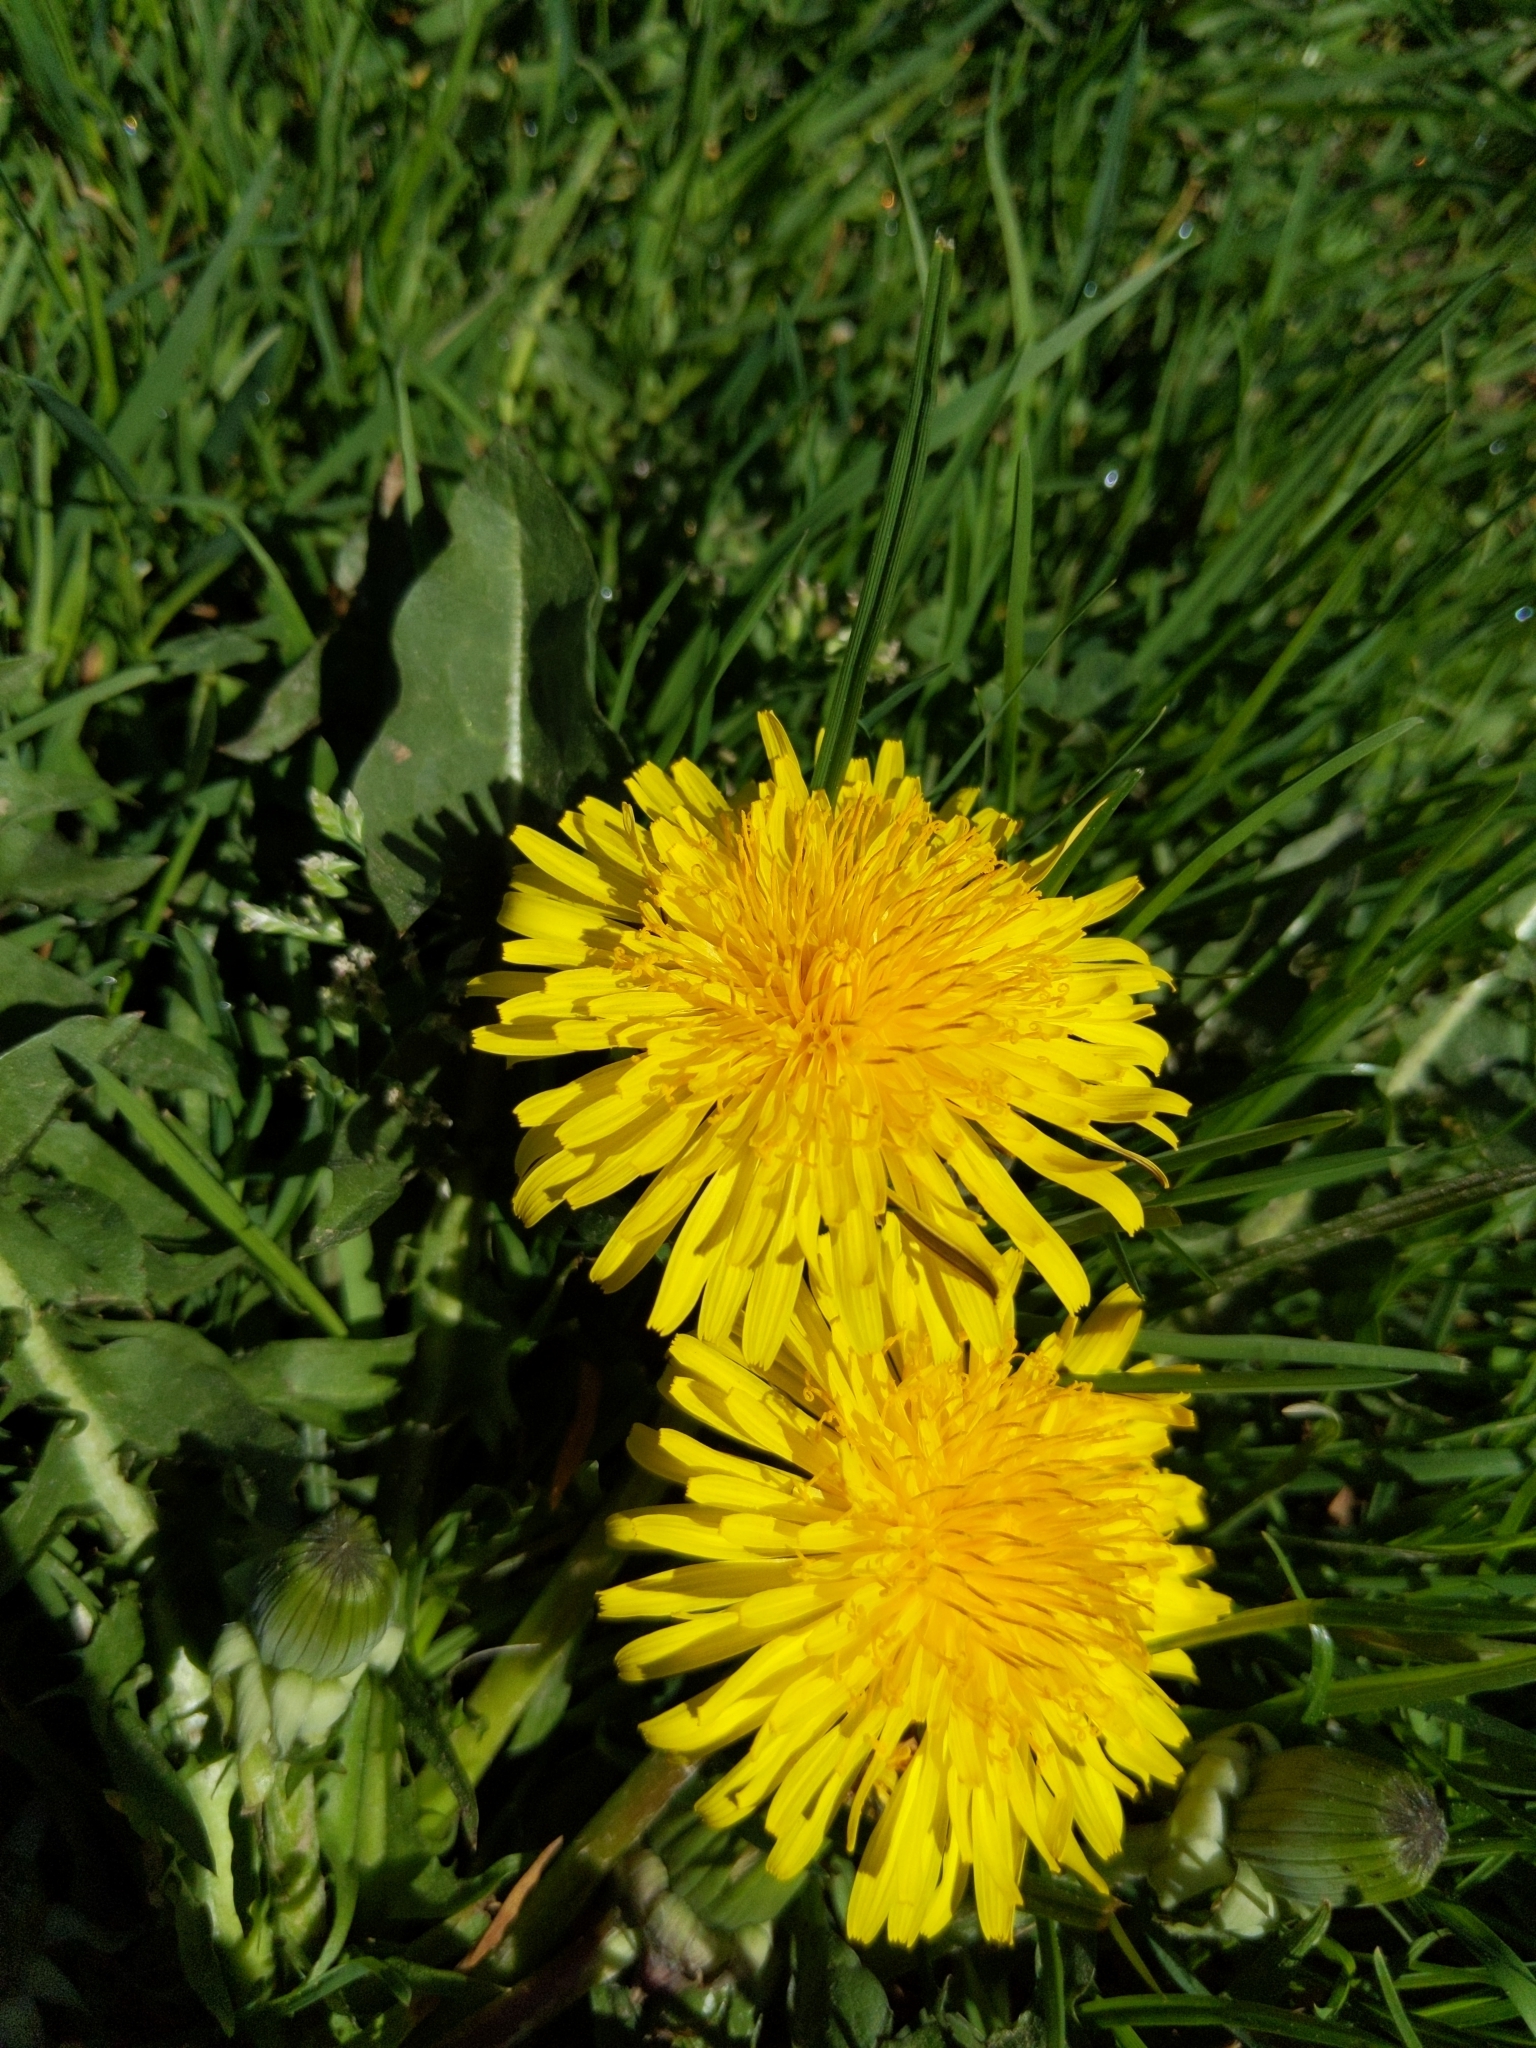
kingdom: Plantae
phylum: Tracheophyta
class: Magnoliopsida
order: Asterales
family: Asteraceae
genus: Taraxacum
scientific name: Taraxacum officinale
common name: Common dandelion
